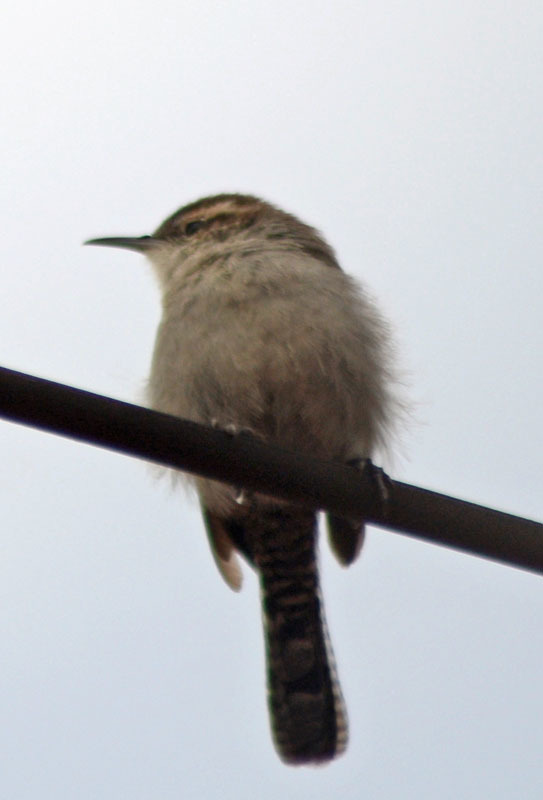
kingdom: Animalia
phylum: Chordata
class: Aves
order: Passeriformes
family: Troglodytidae
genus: Thryomanes
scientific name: Thryomanes bewickii
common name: Bewick's wren
